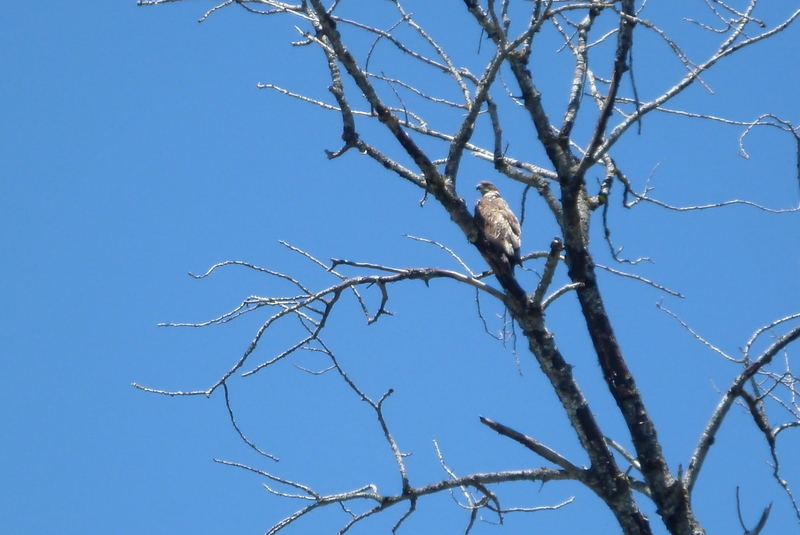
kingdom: Animalia
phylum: Chordata
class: Aves
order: Accipitriformes
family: Accipitridae
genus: Buteo
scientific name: Buteo jamaicensis
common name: Red-tailed hawk
